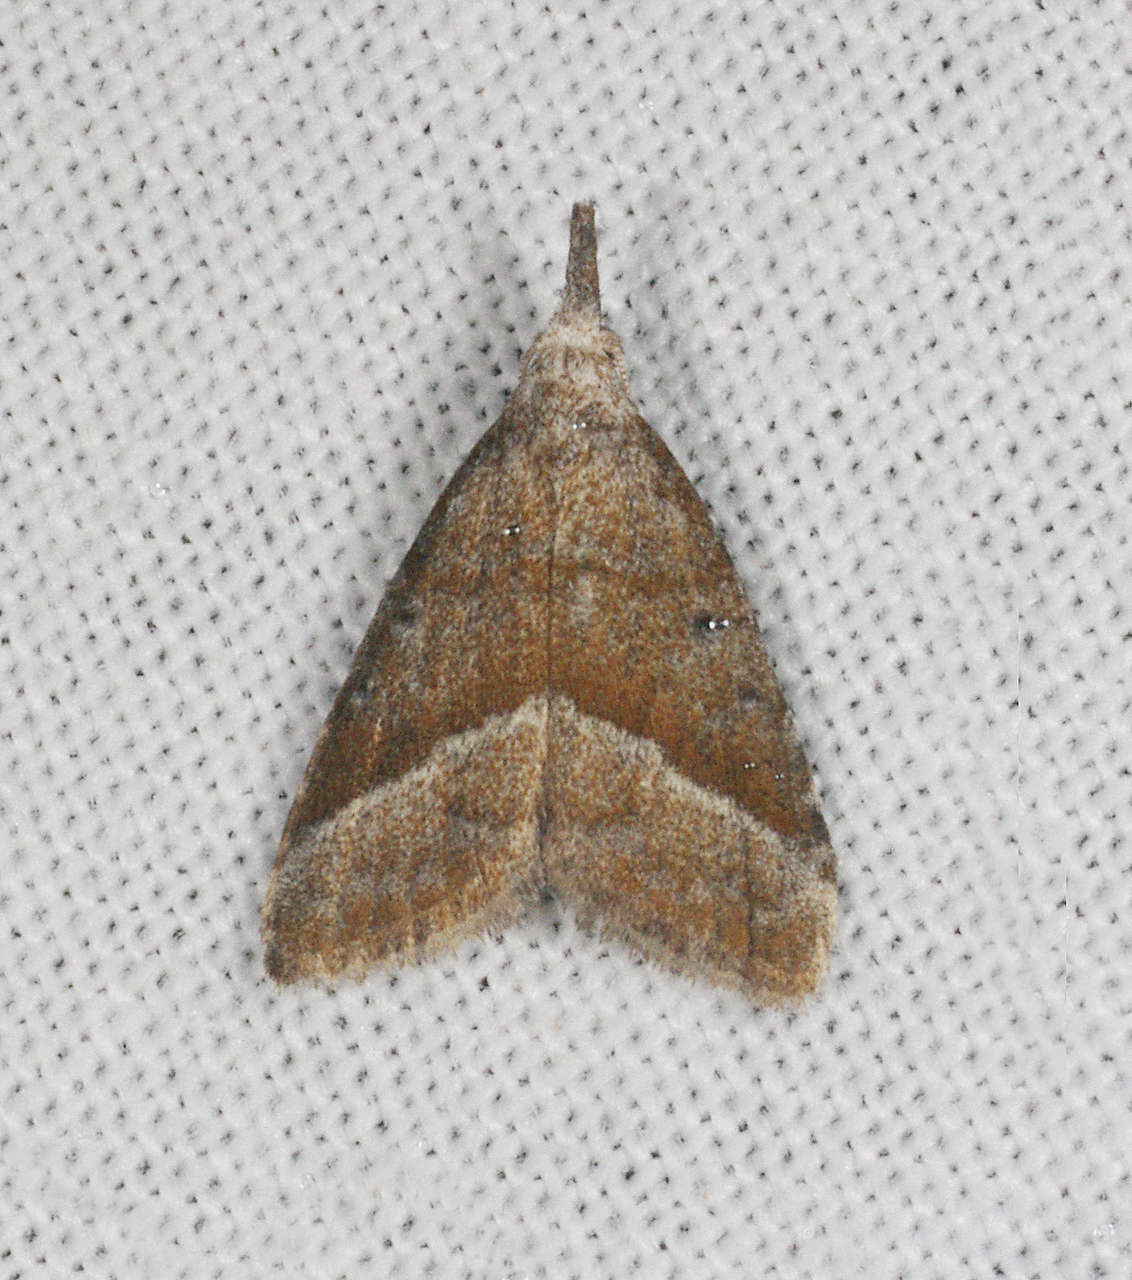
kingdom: Animalia
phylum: Arthropoda
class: Insecta
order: Lepidoptera
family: Nolidae
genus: Nola
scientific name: Nola tholera
